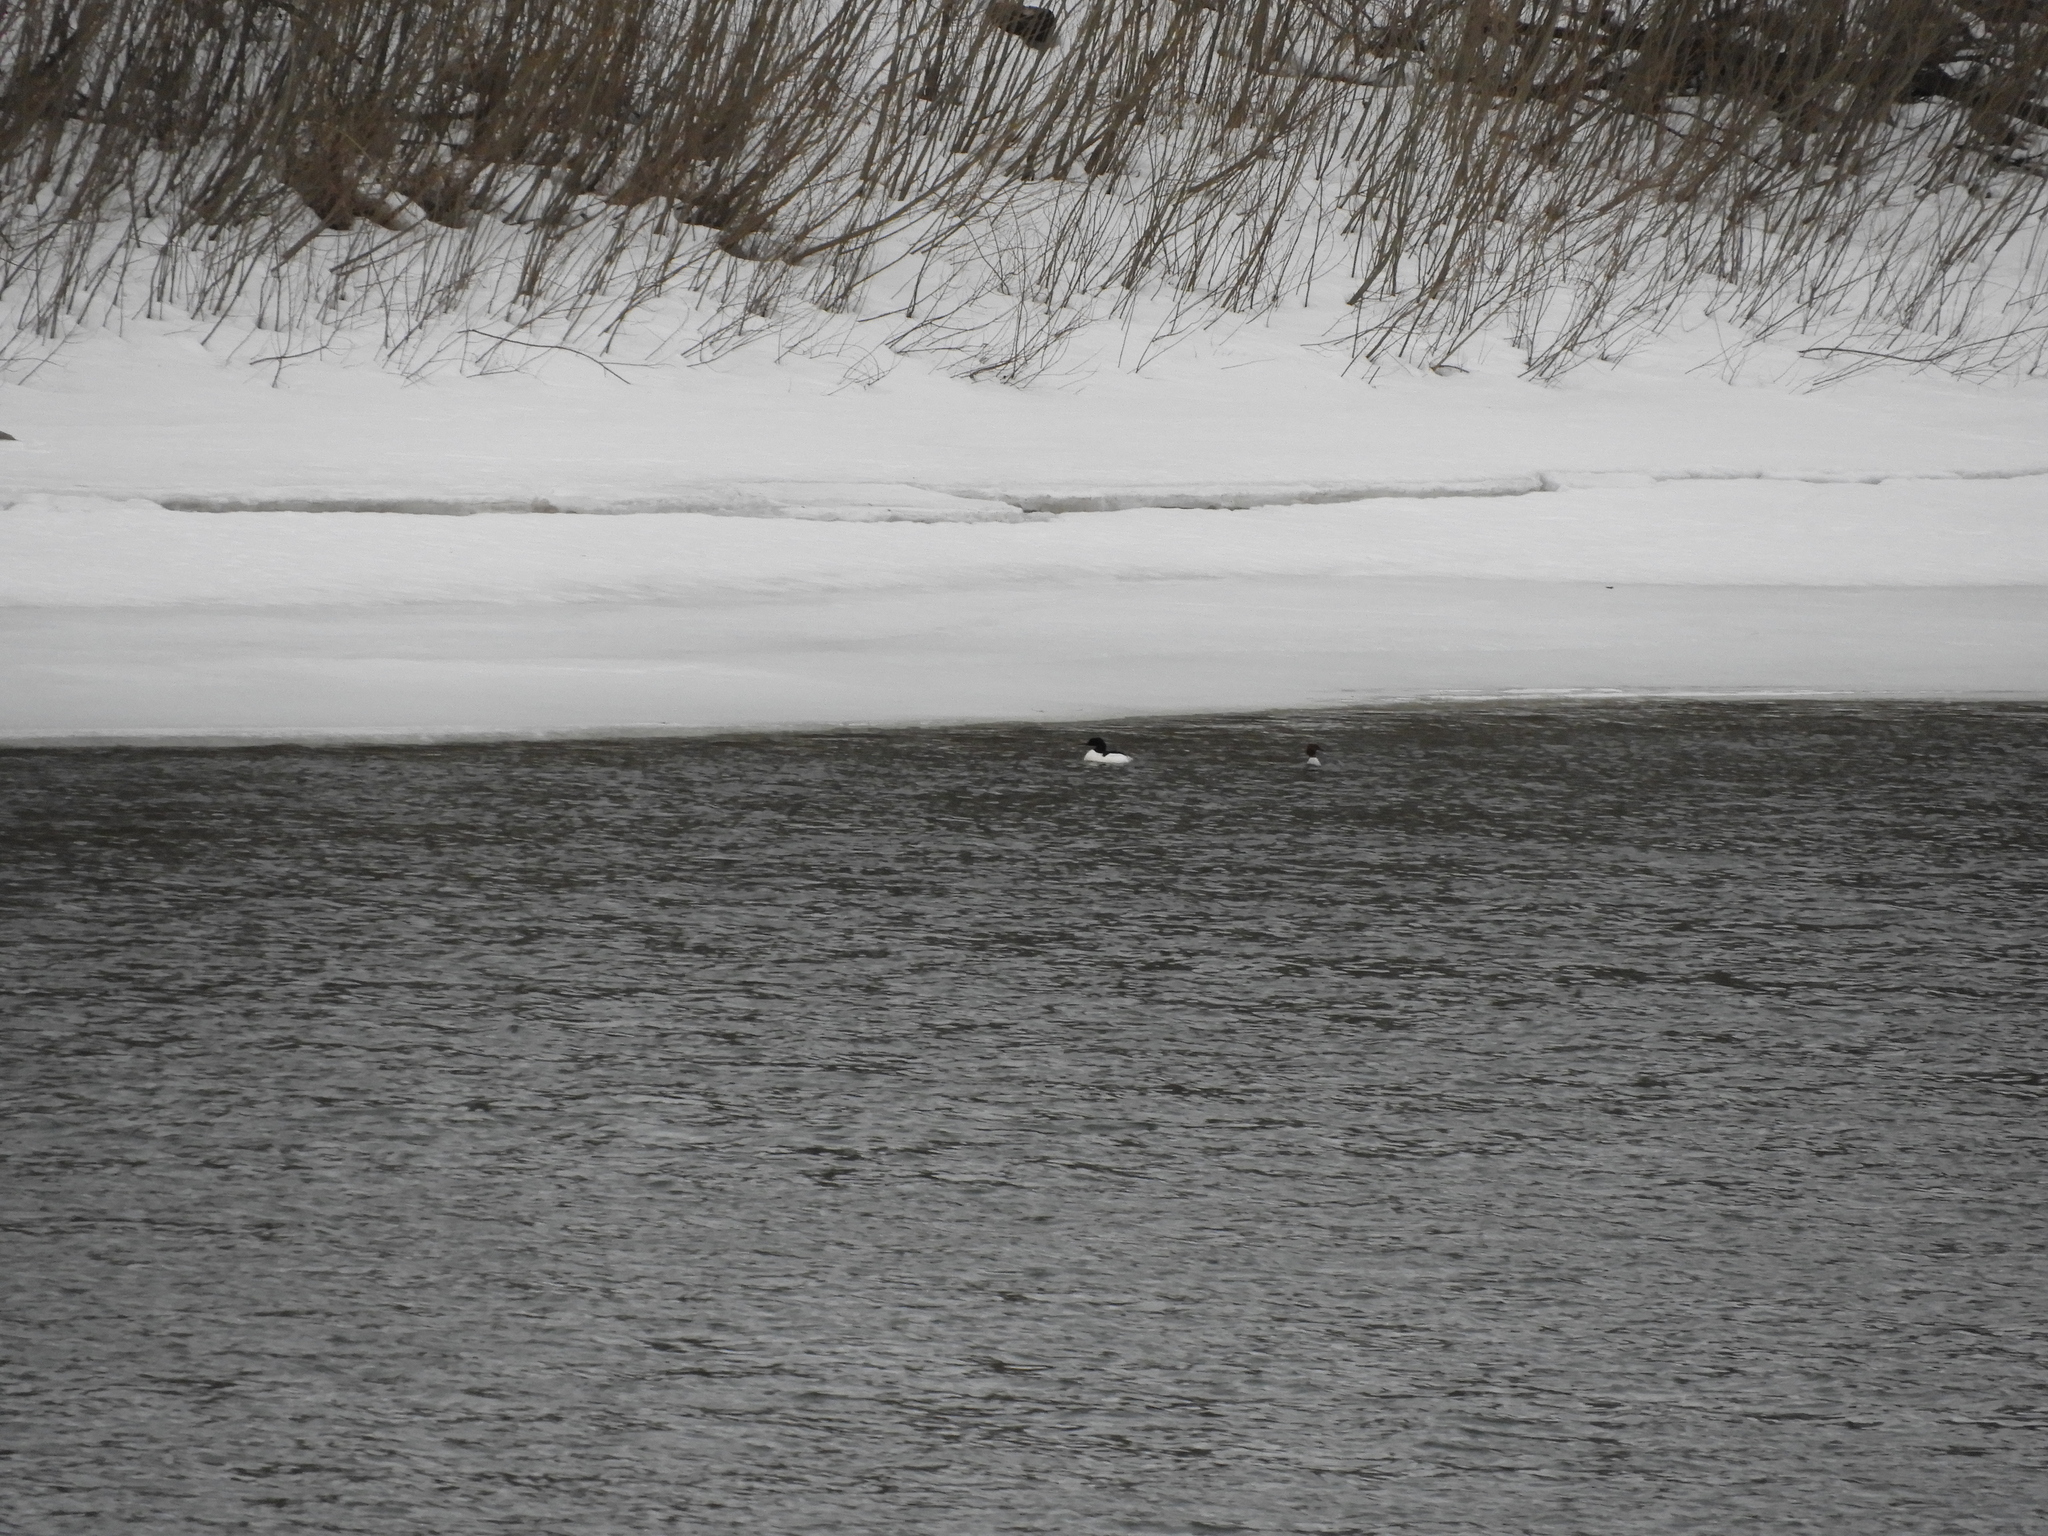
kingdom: Animalia
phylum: Chordata
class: Aves
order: Anseriformes
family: Anatidae
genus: Mergus
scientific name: Mergus merganser
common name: Common merganser
